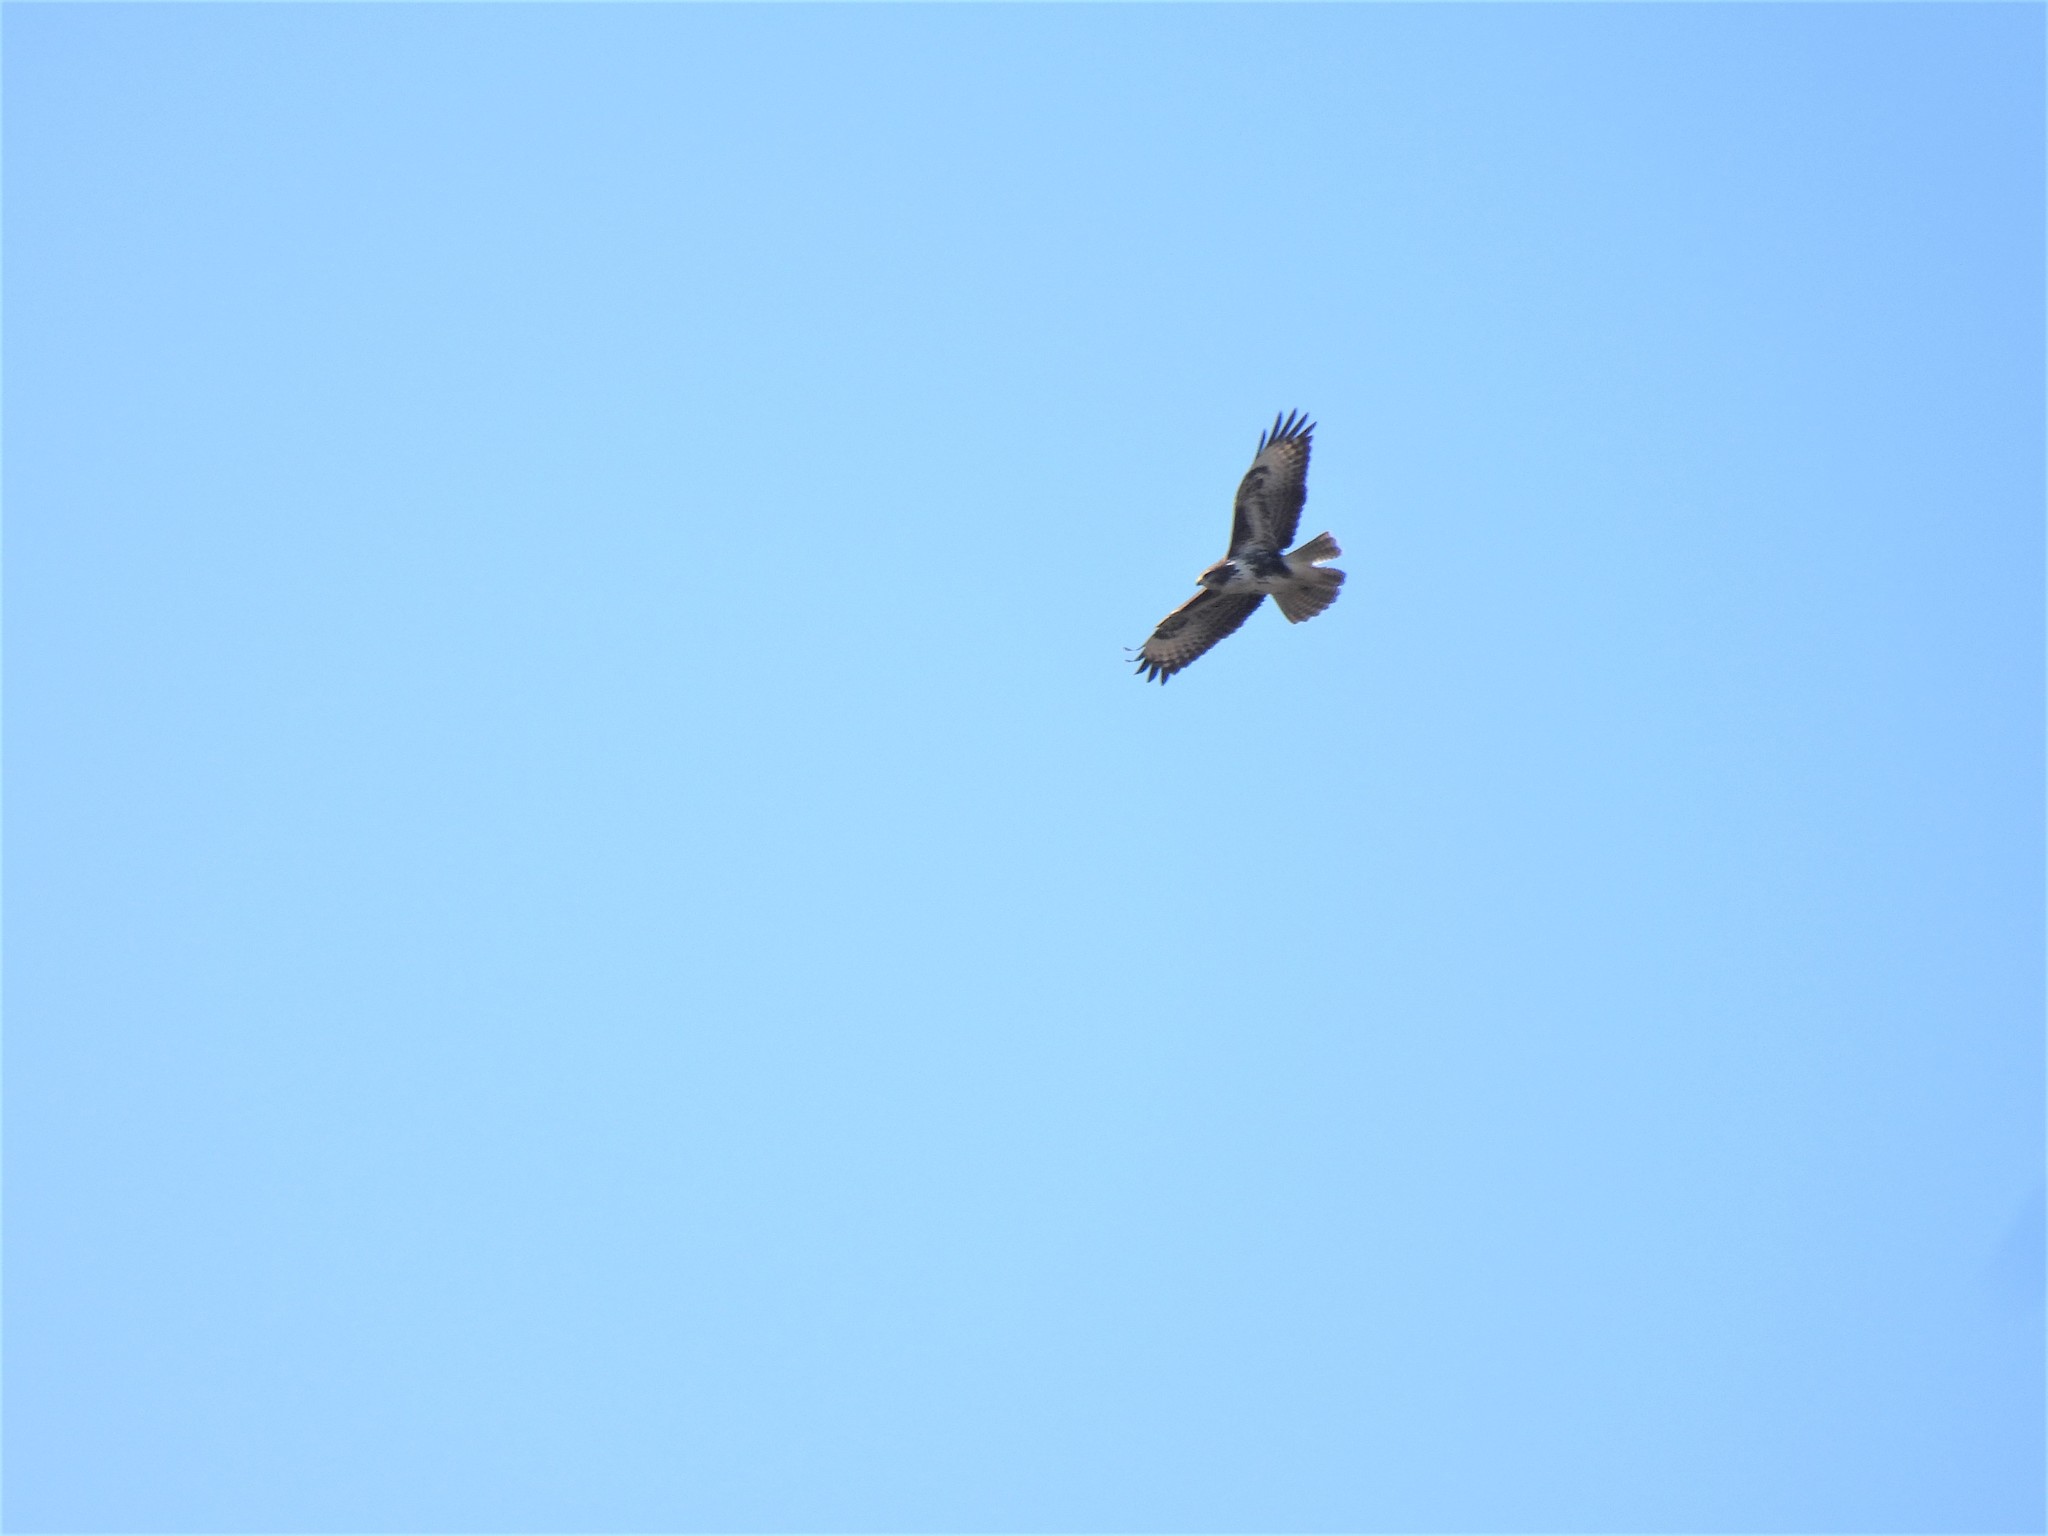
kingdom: Animalia
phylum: Chordata
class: Aves
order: Accipitriformes
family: Accipitridae
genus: Buteo
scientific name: Buteo buteo
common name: Common buzzard
